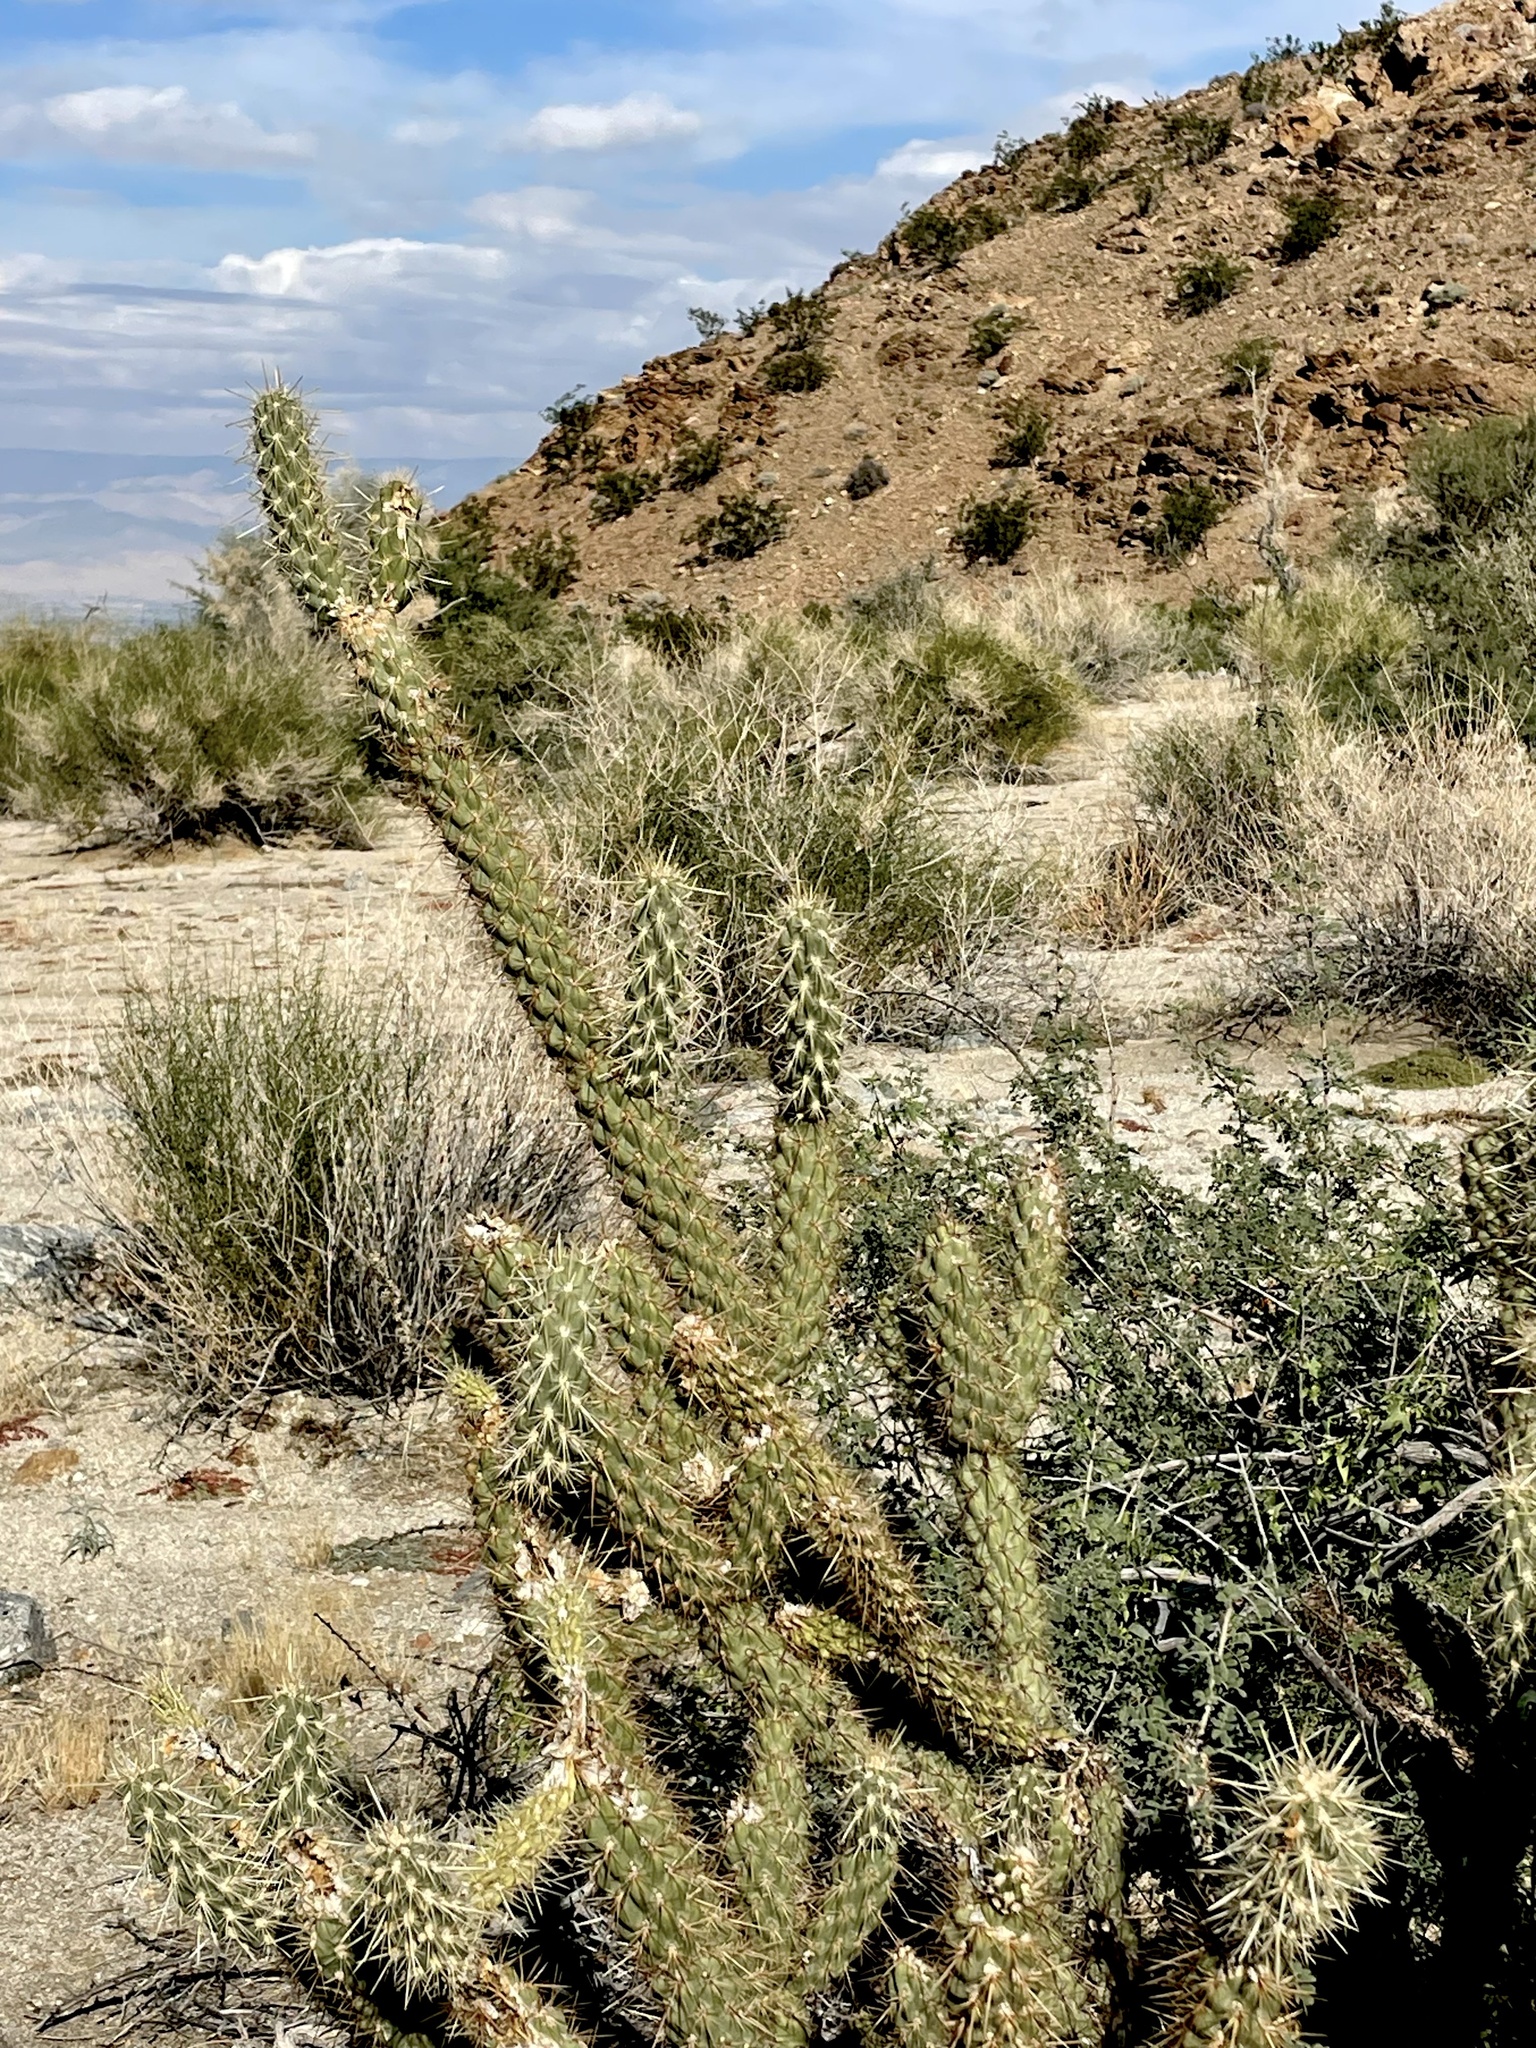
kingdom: Plantae
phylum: Tracheophyta
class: Magnoliopsida
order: Caryophyllales
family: Cactaceae
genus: Cylindropuntia
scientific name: Cylindropuntia ganderi
